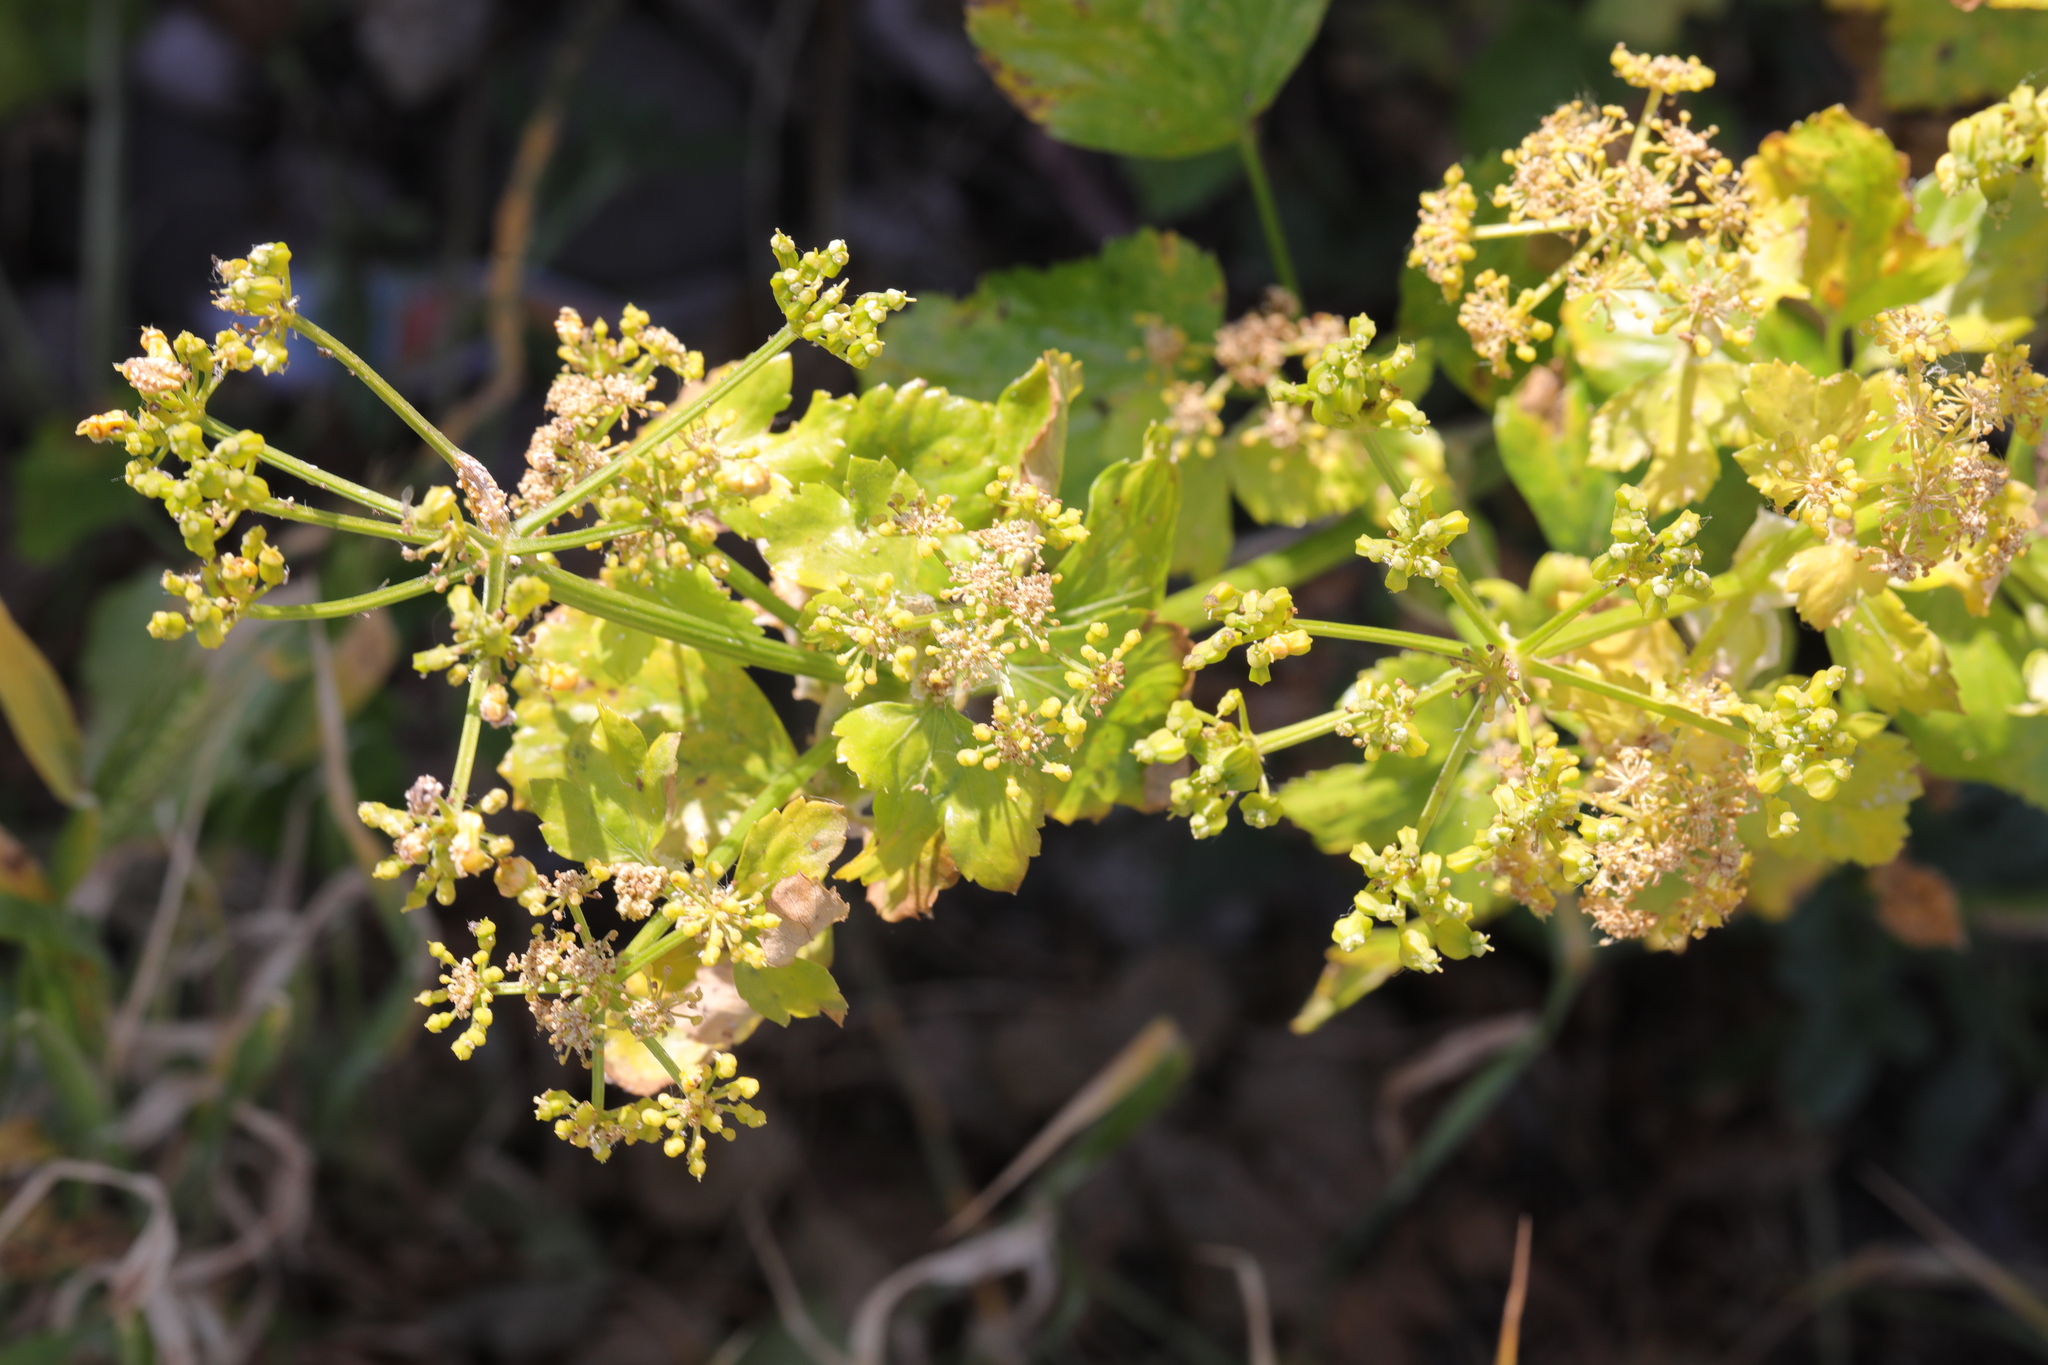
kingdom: Plantae
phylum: Tracheophyta
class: Magnoliopsida
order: Apiales
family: Apiaceae
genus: Smyrnium
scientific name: Smyrnium olusatrum
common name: Alexanders
